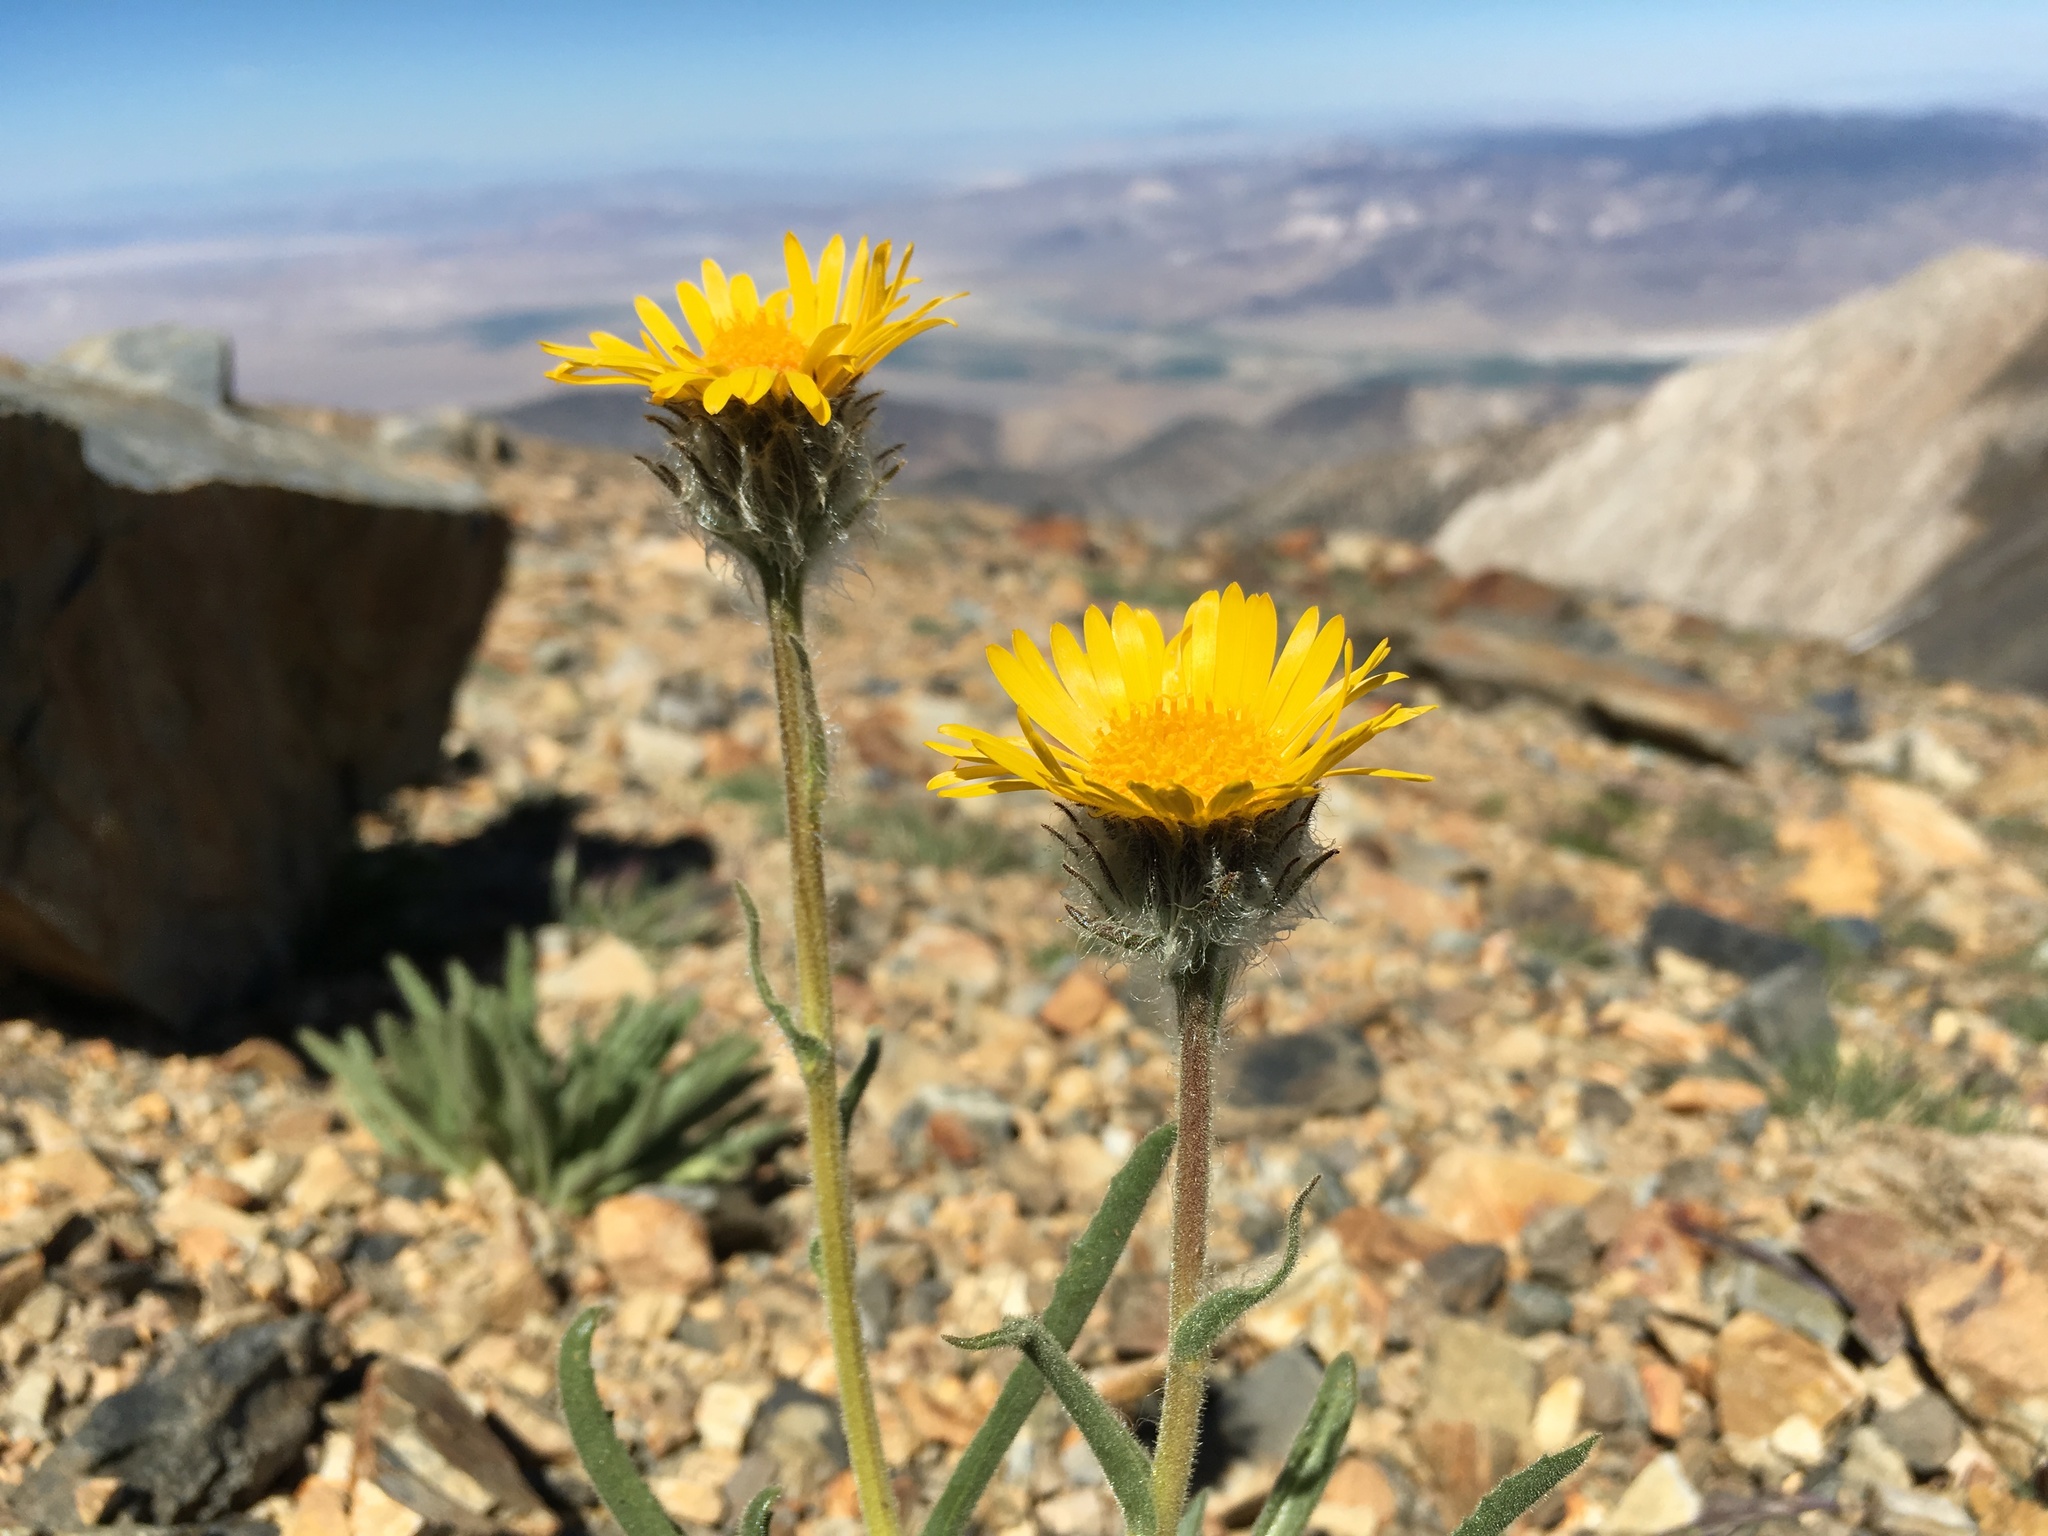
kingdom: Plantae
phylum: Tracheophyta
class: Magnoliopsida
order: Asterales
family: Asteraceae
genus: Hulsea
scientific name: Hulsea algida
